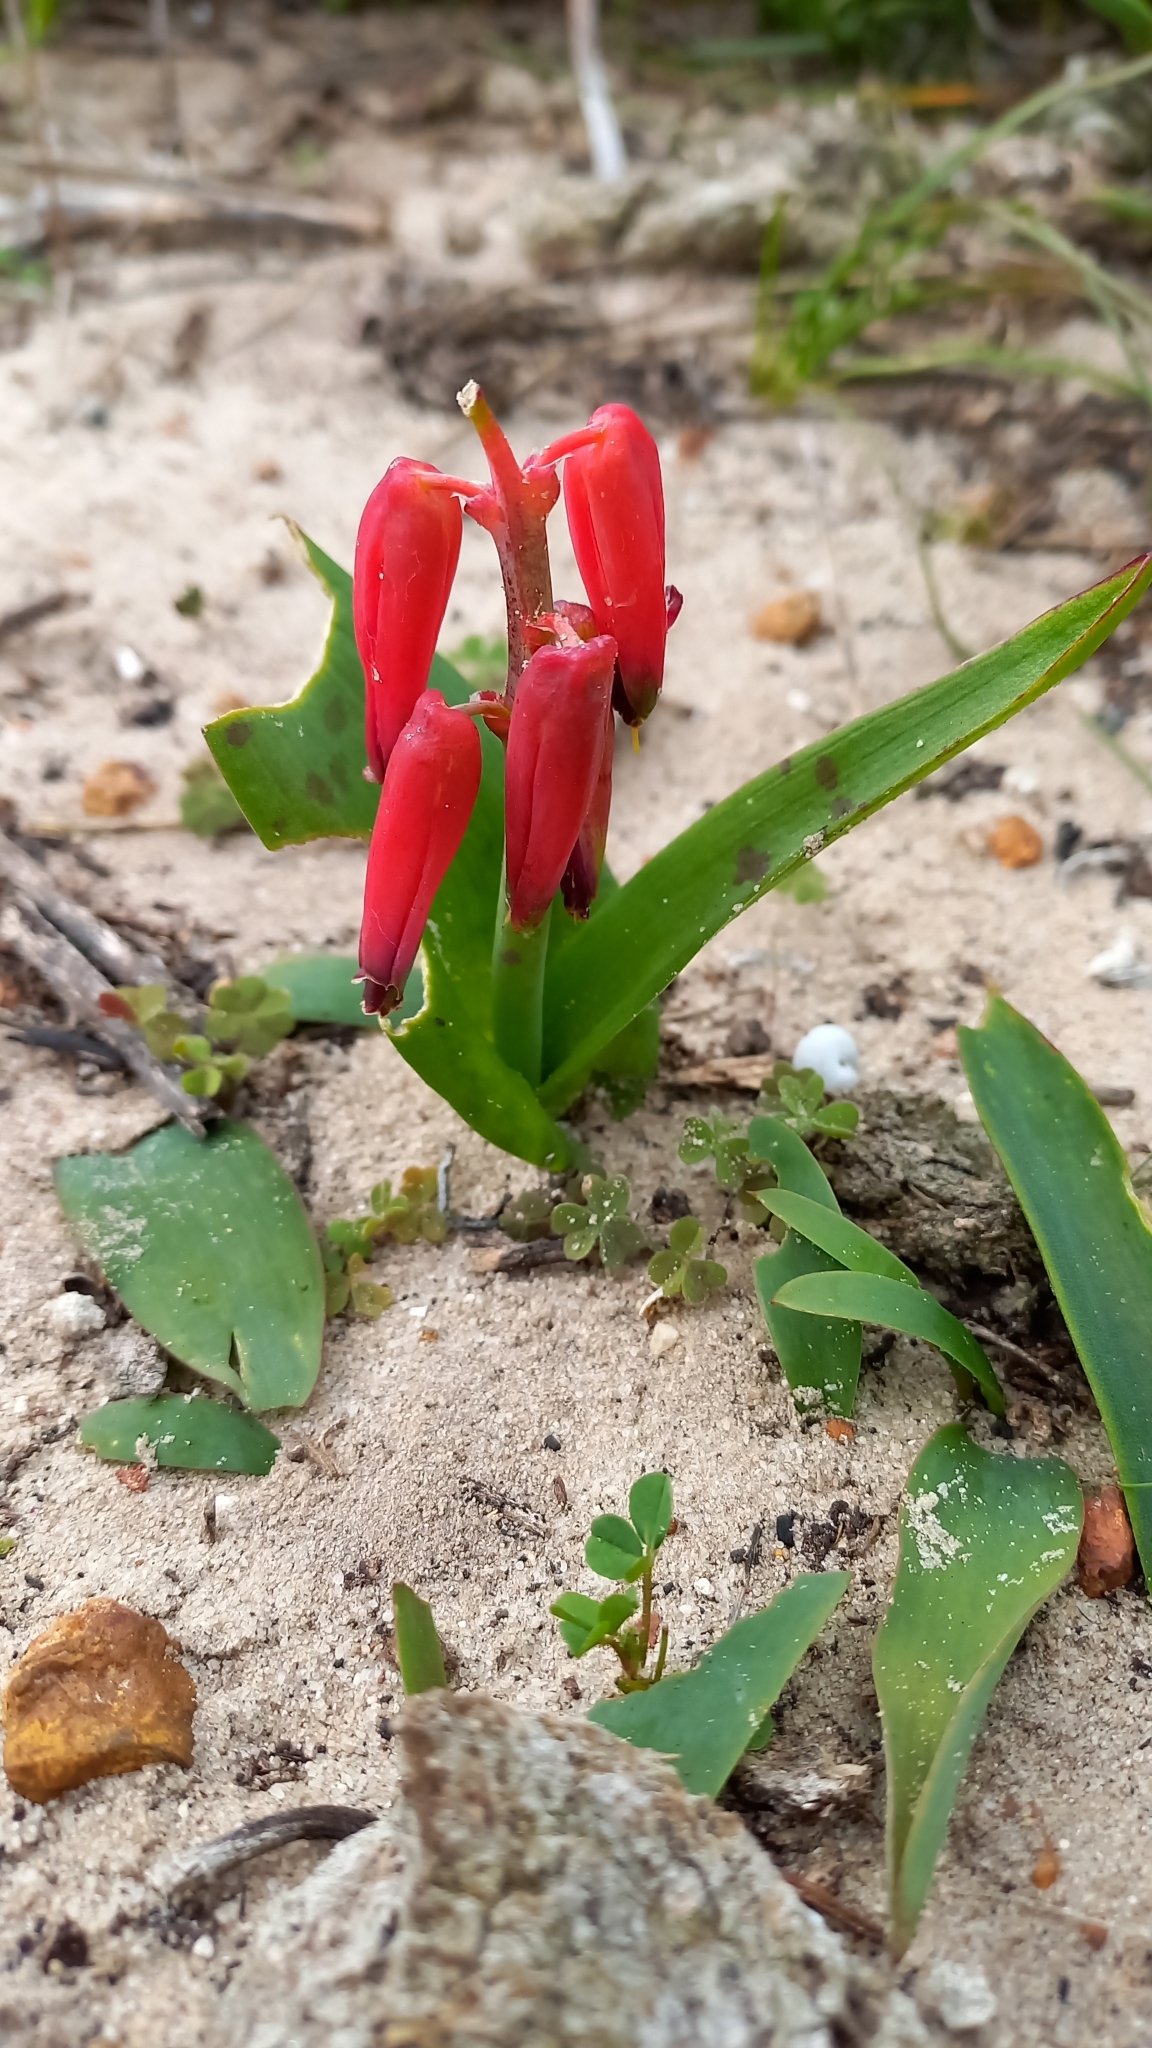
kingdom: Plantae
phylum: Tracheophyta
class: Liliopsida
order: Asparagales
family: Asparagaceae
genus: Lachenalia
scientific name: Lachenalia bulbifera
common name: Red lachenalia
